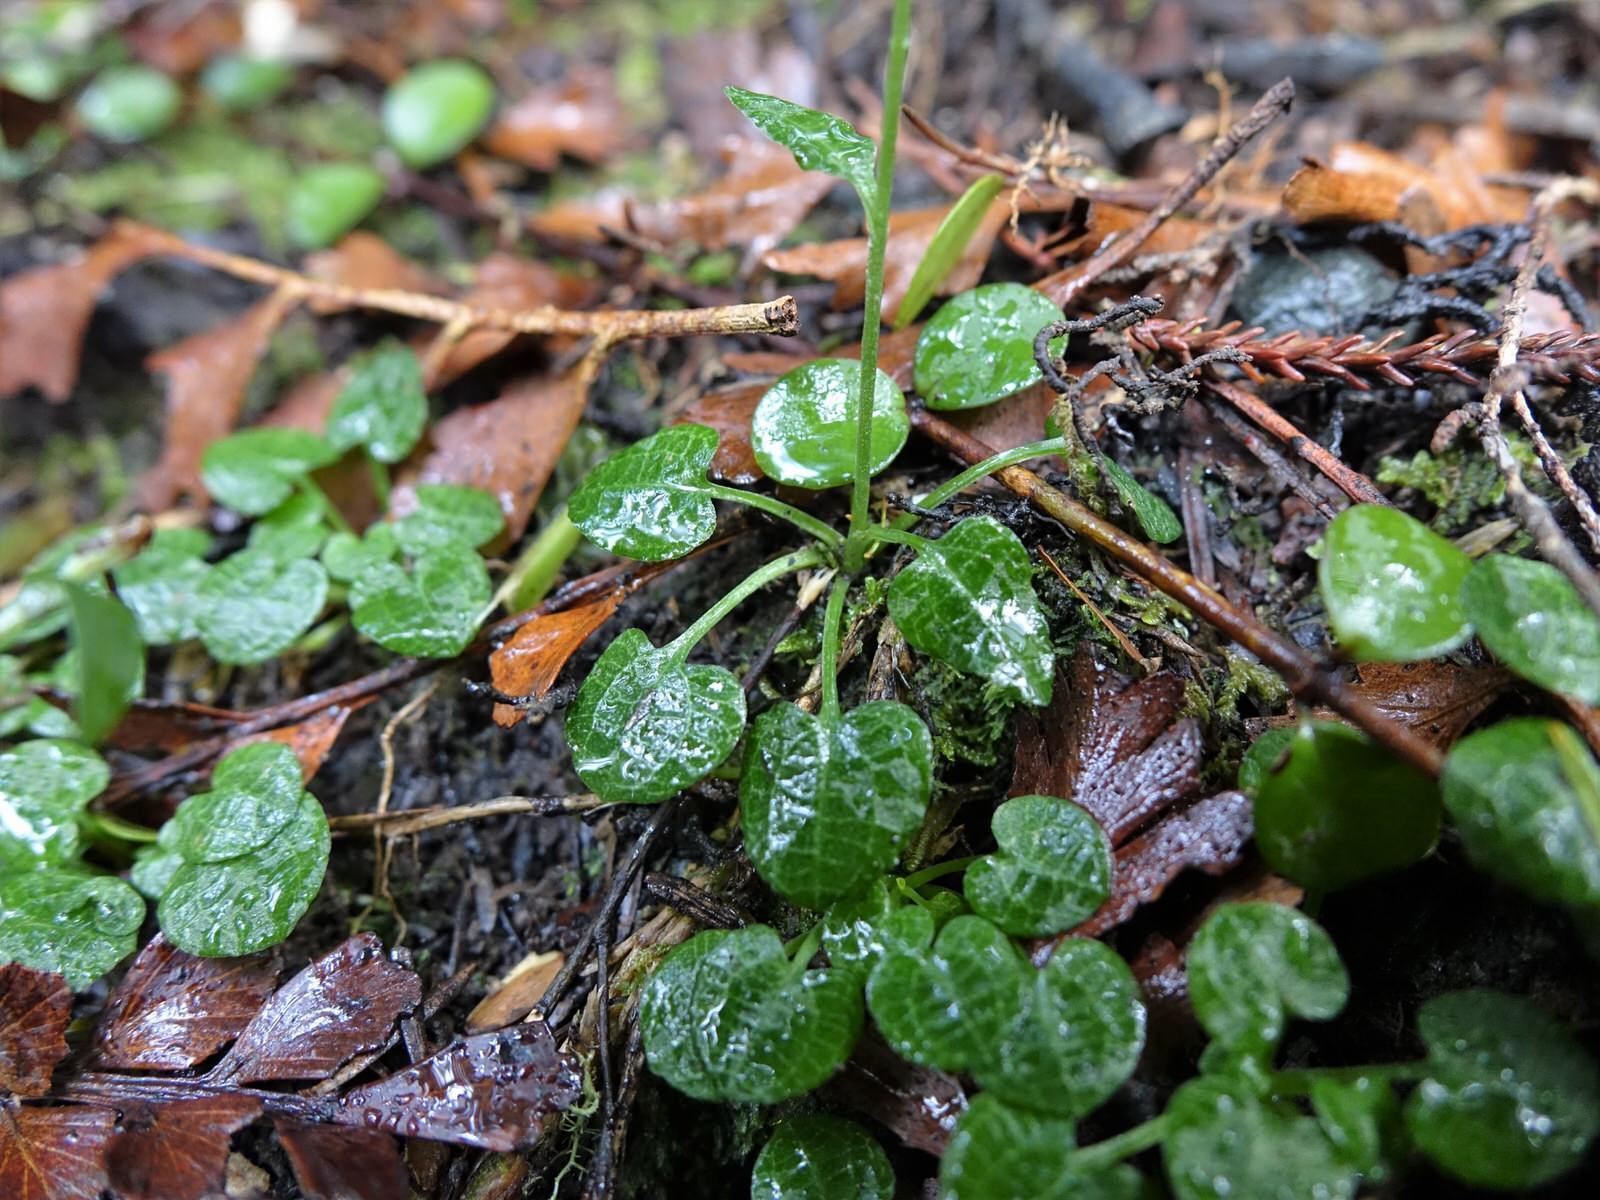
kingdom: Plantae
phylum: Tracheophyta
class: Liliopsida
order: Asparagales
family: Orchidaceae
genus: Pterostylis
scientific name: Pterostylis trullifolia
